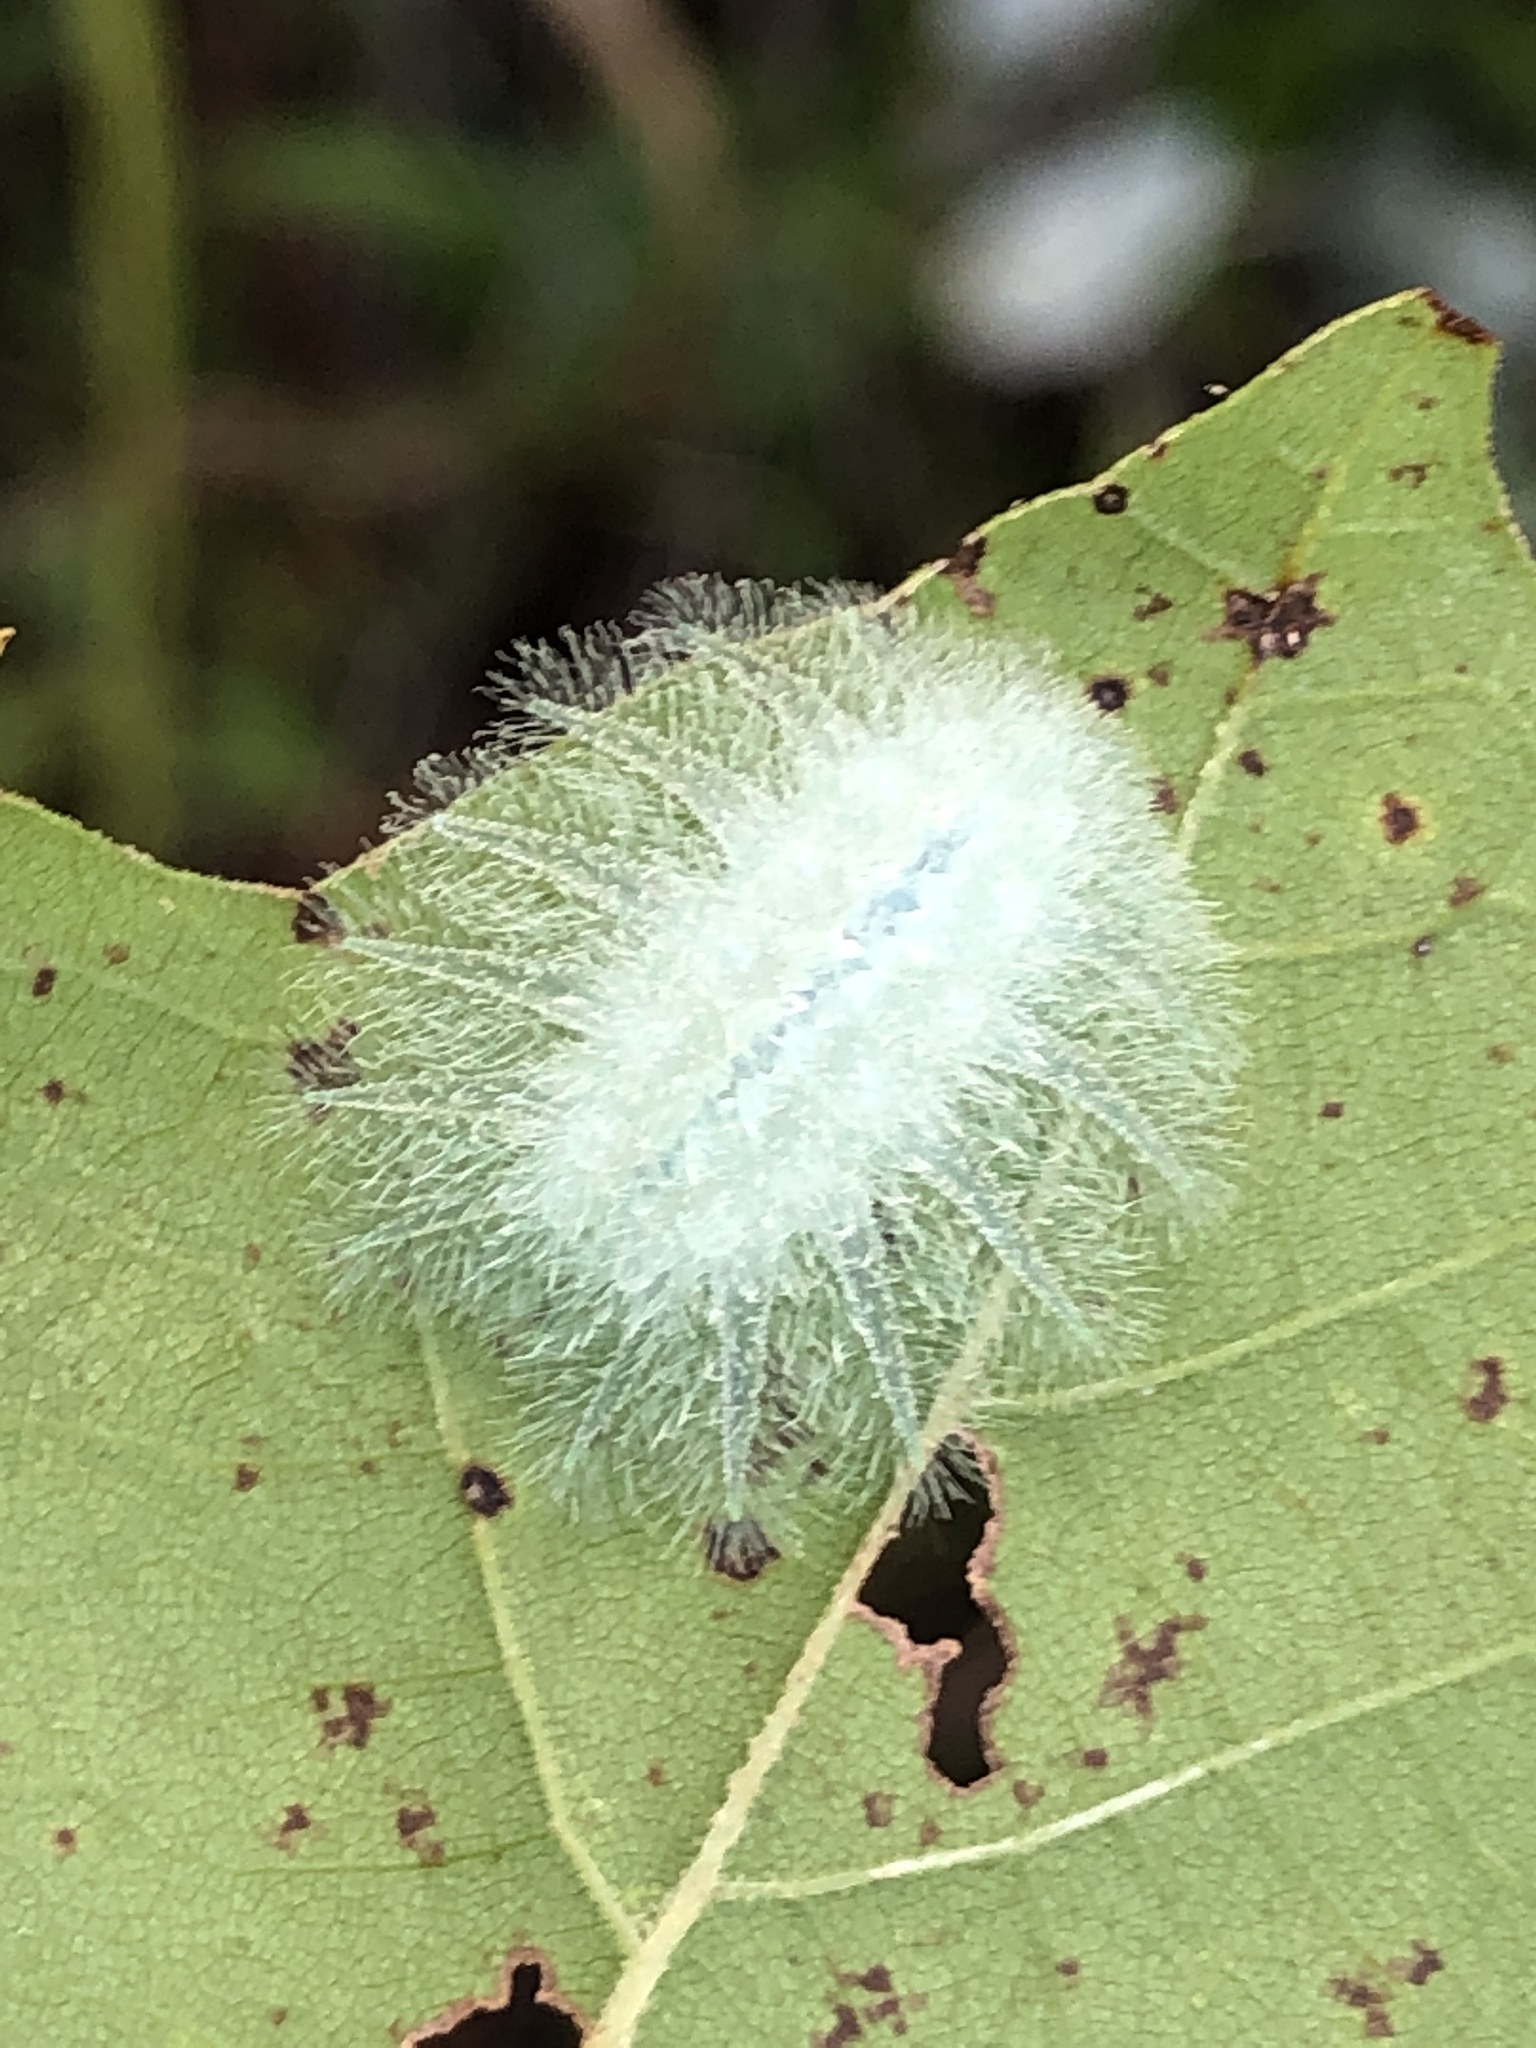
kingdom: Animalia
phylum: Arthropoda
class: Insecta
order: Lepidoptera
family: Limacodidae
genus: Isochaetes
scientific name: Isochaetes beutenmuelleri
